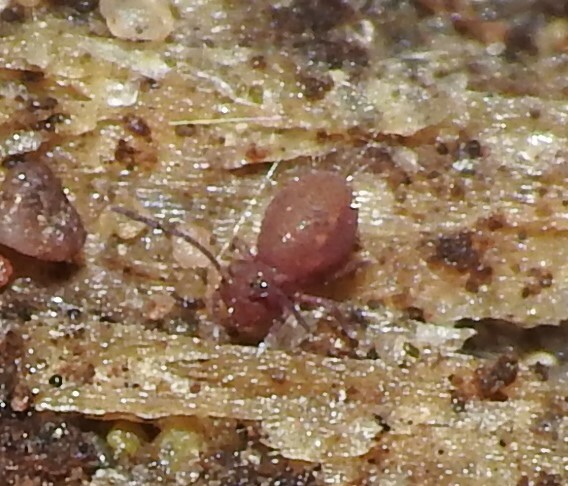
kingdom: Animalia
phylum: Arthropoda
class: Collembola
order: Symphypleona
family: Dicyrtomidae
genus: Dicyrtoma
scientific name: Dicyrtoma fusca
